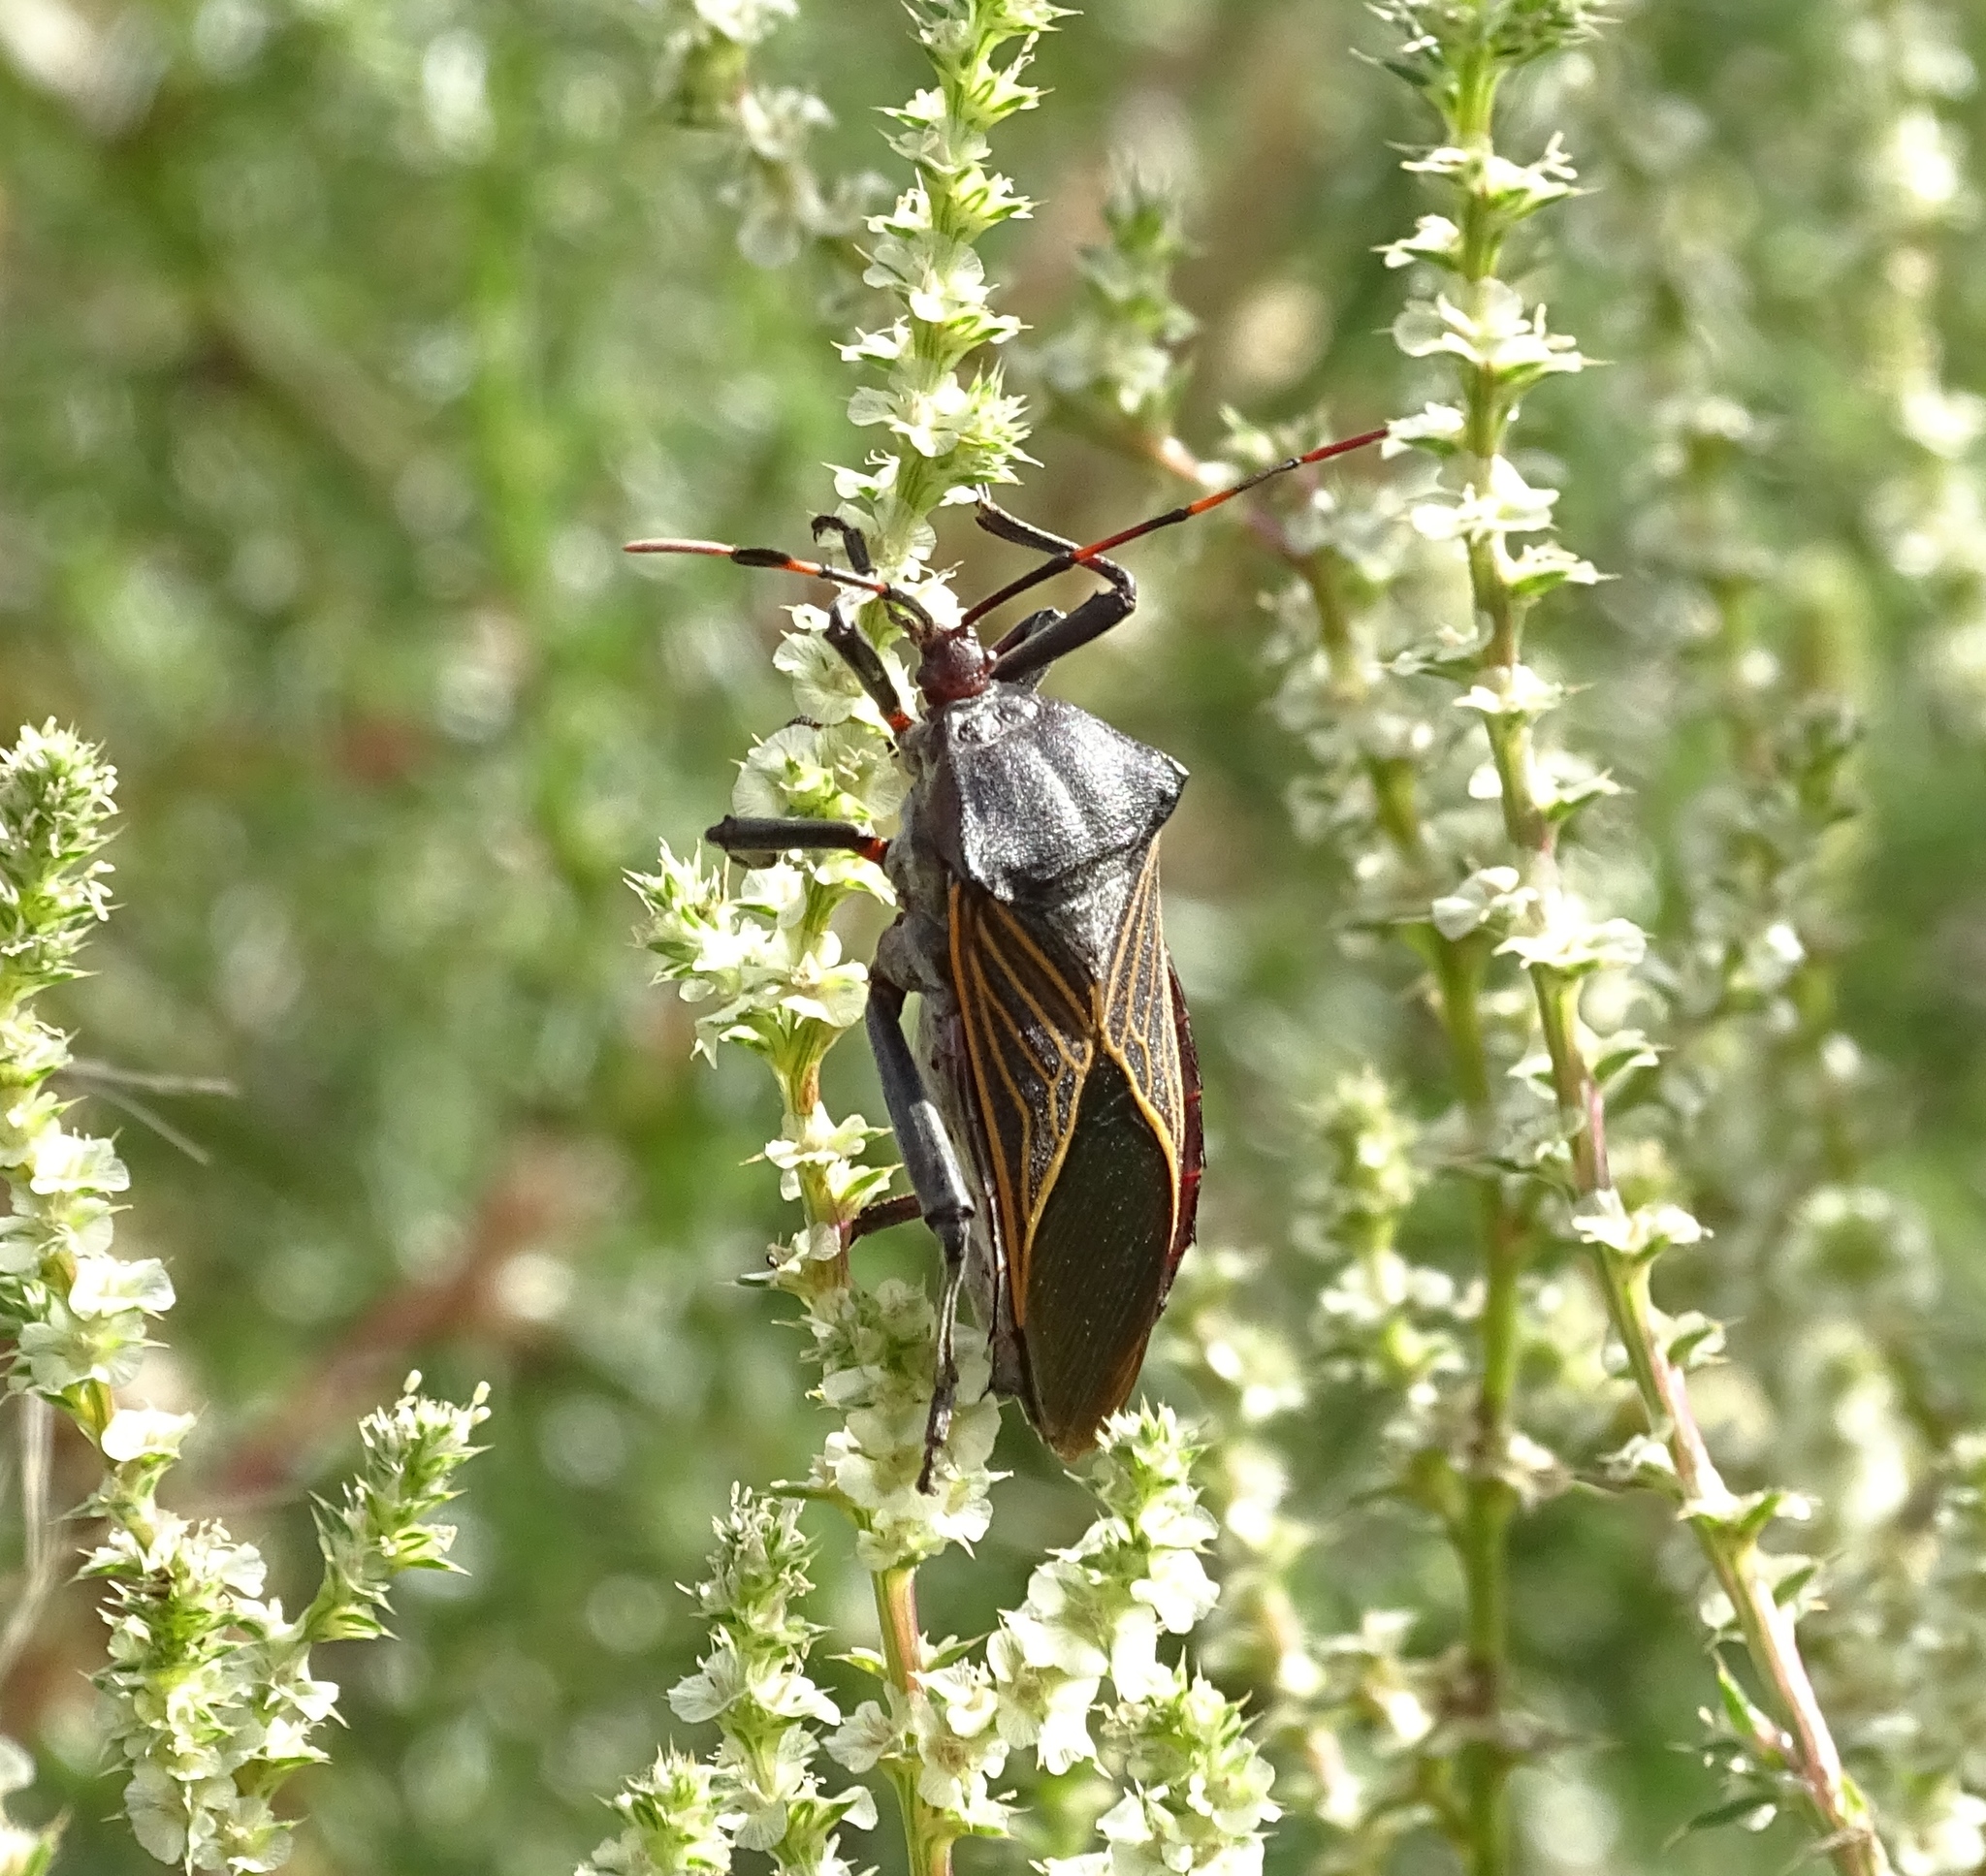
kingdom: Animalia
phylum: Arthropoda
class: Insecta
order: Hemiptera
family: Coreidae
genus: Thasus
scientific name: Thasus neocalifornicus
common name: Giant mesquite bug
